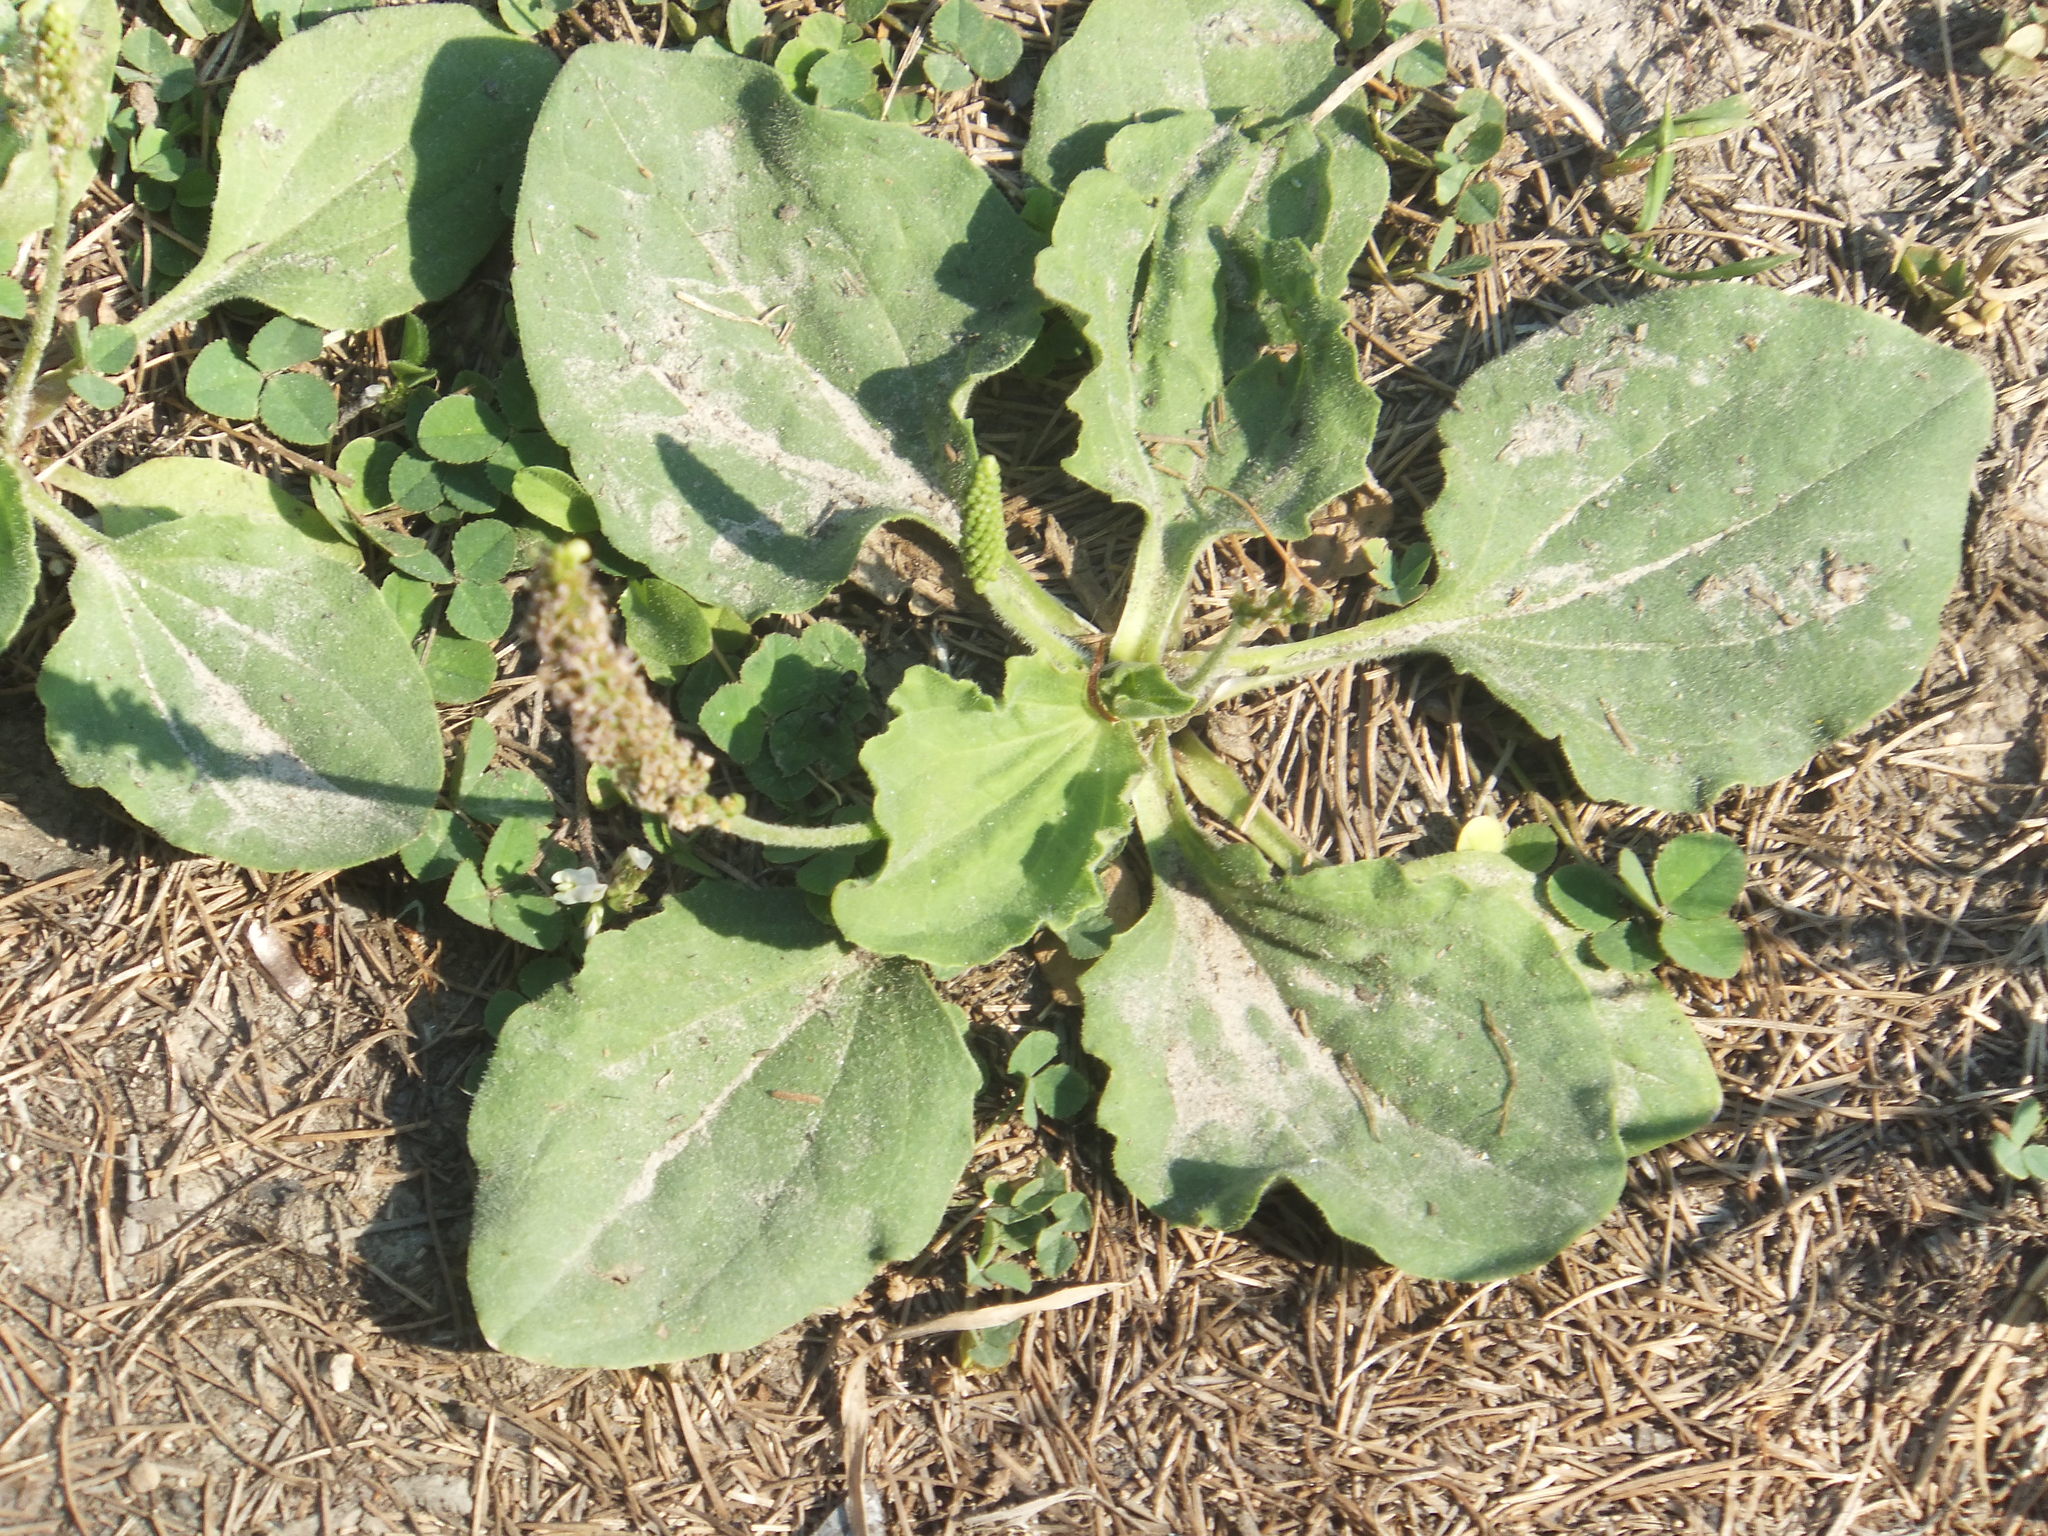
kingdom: Plantae
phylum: Tracheophyta
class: Magnoliopsida
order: Lamiales
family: Plantaginaceae
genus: Plantago
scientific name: Plantago major
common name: Common plantain
